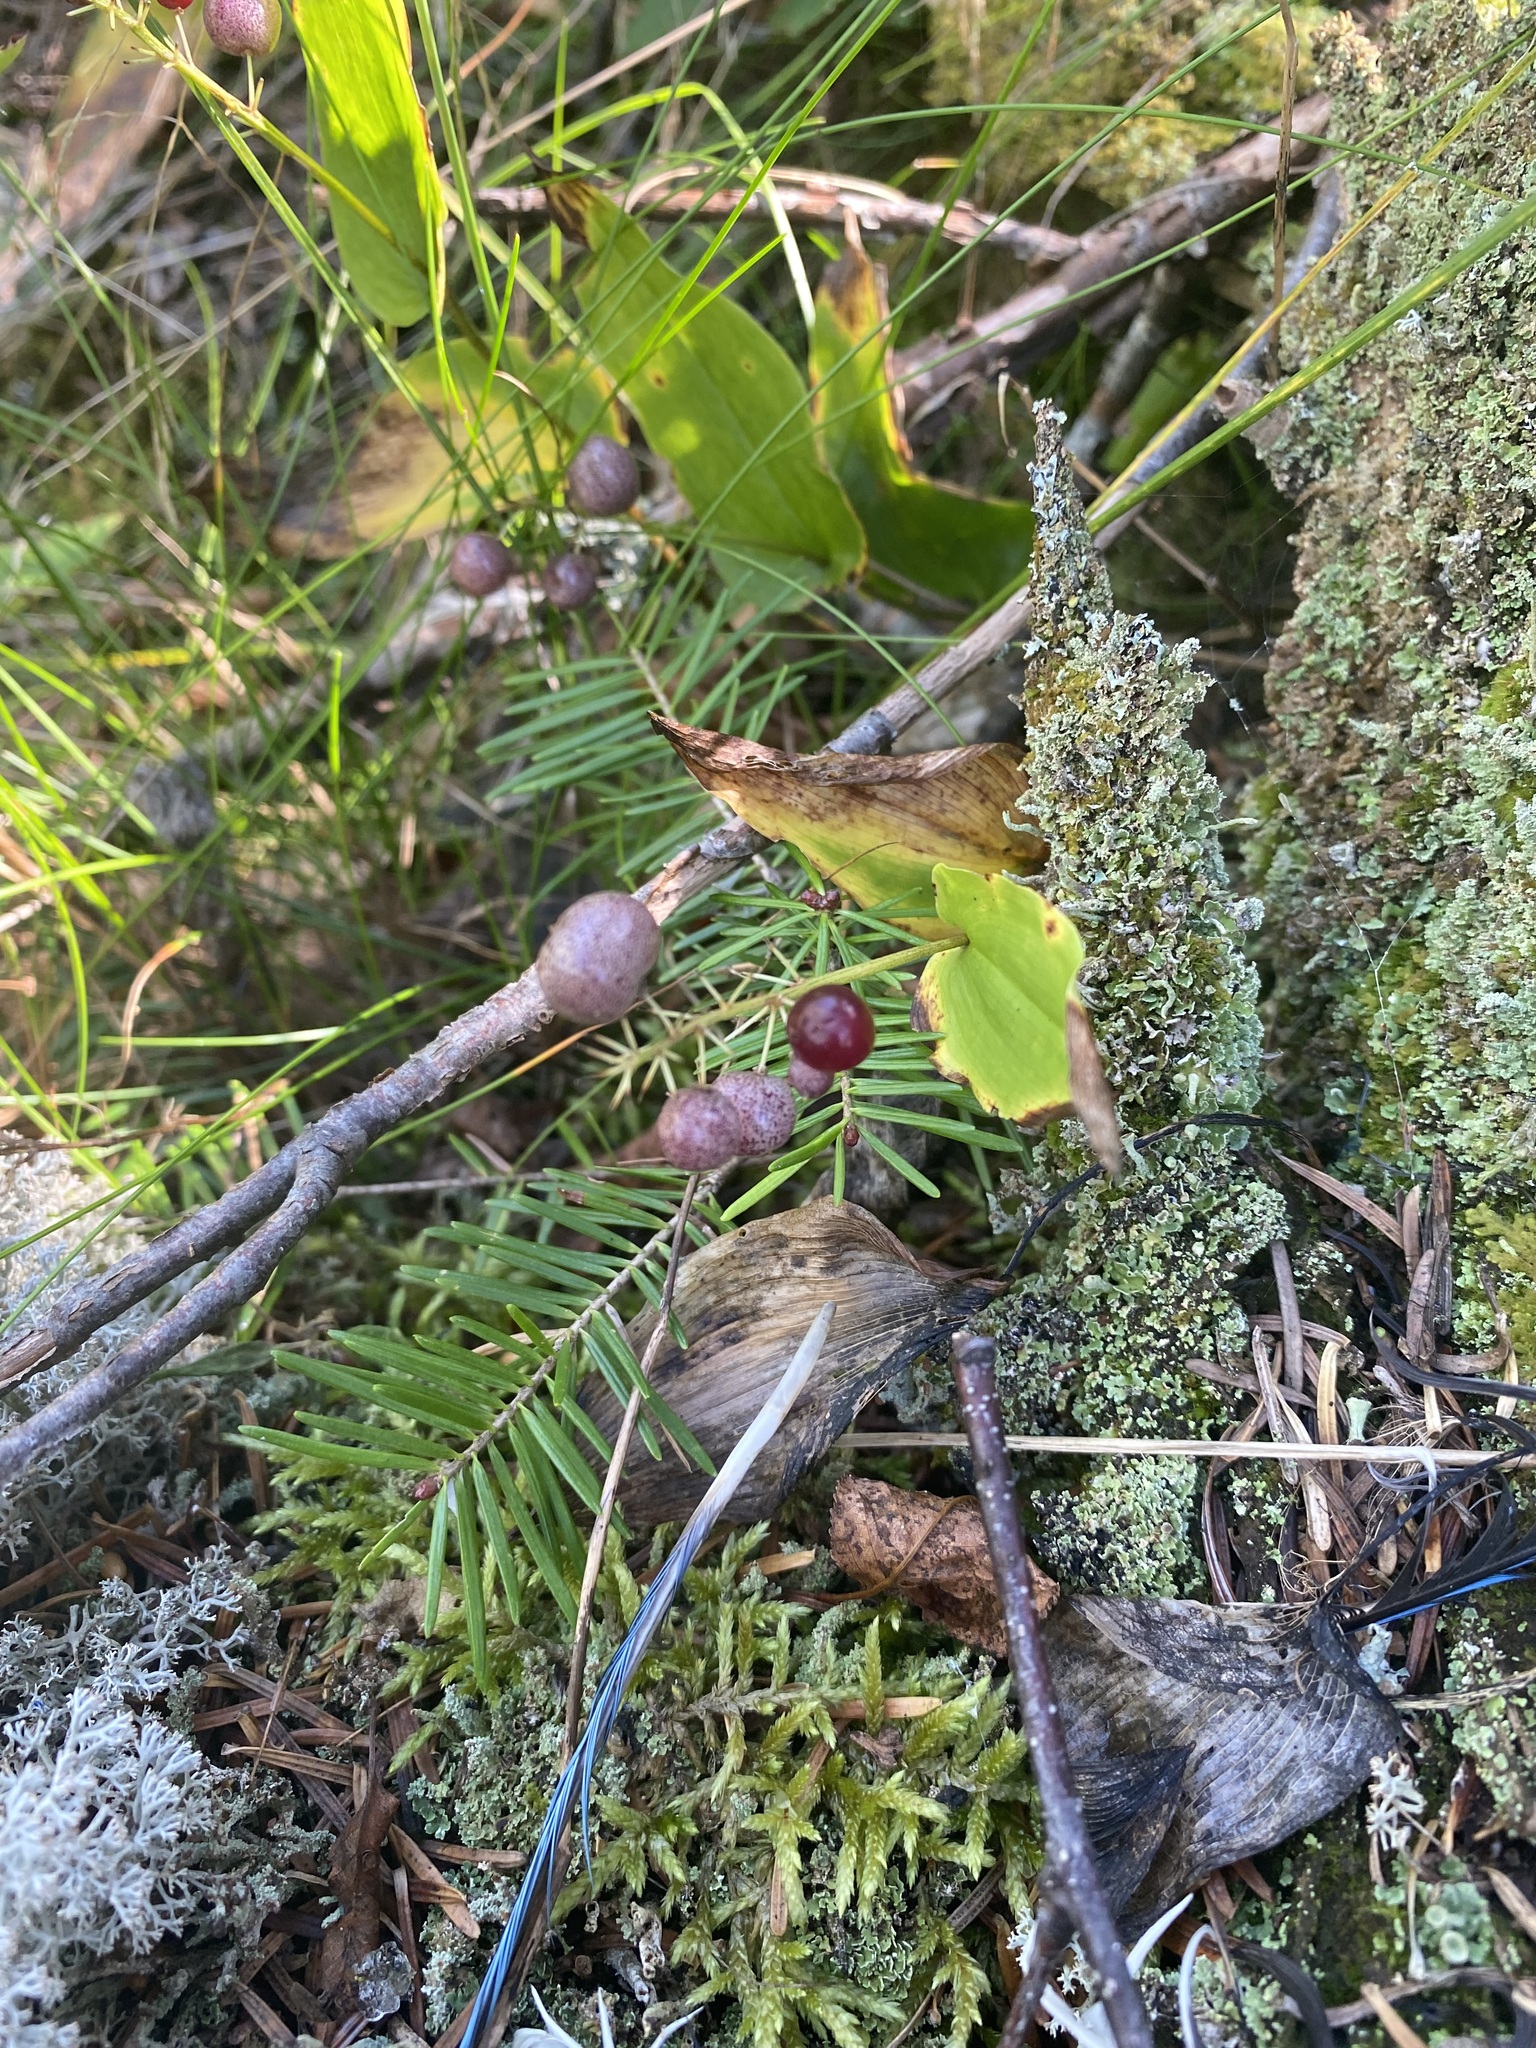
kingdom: Plantae
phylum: Tracheophyta
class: Liliopsida
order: Asparagales
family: Asparagaceae
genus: Maianthemum
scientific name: Maianthemum canadense
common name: False lily-of-the-valley
